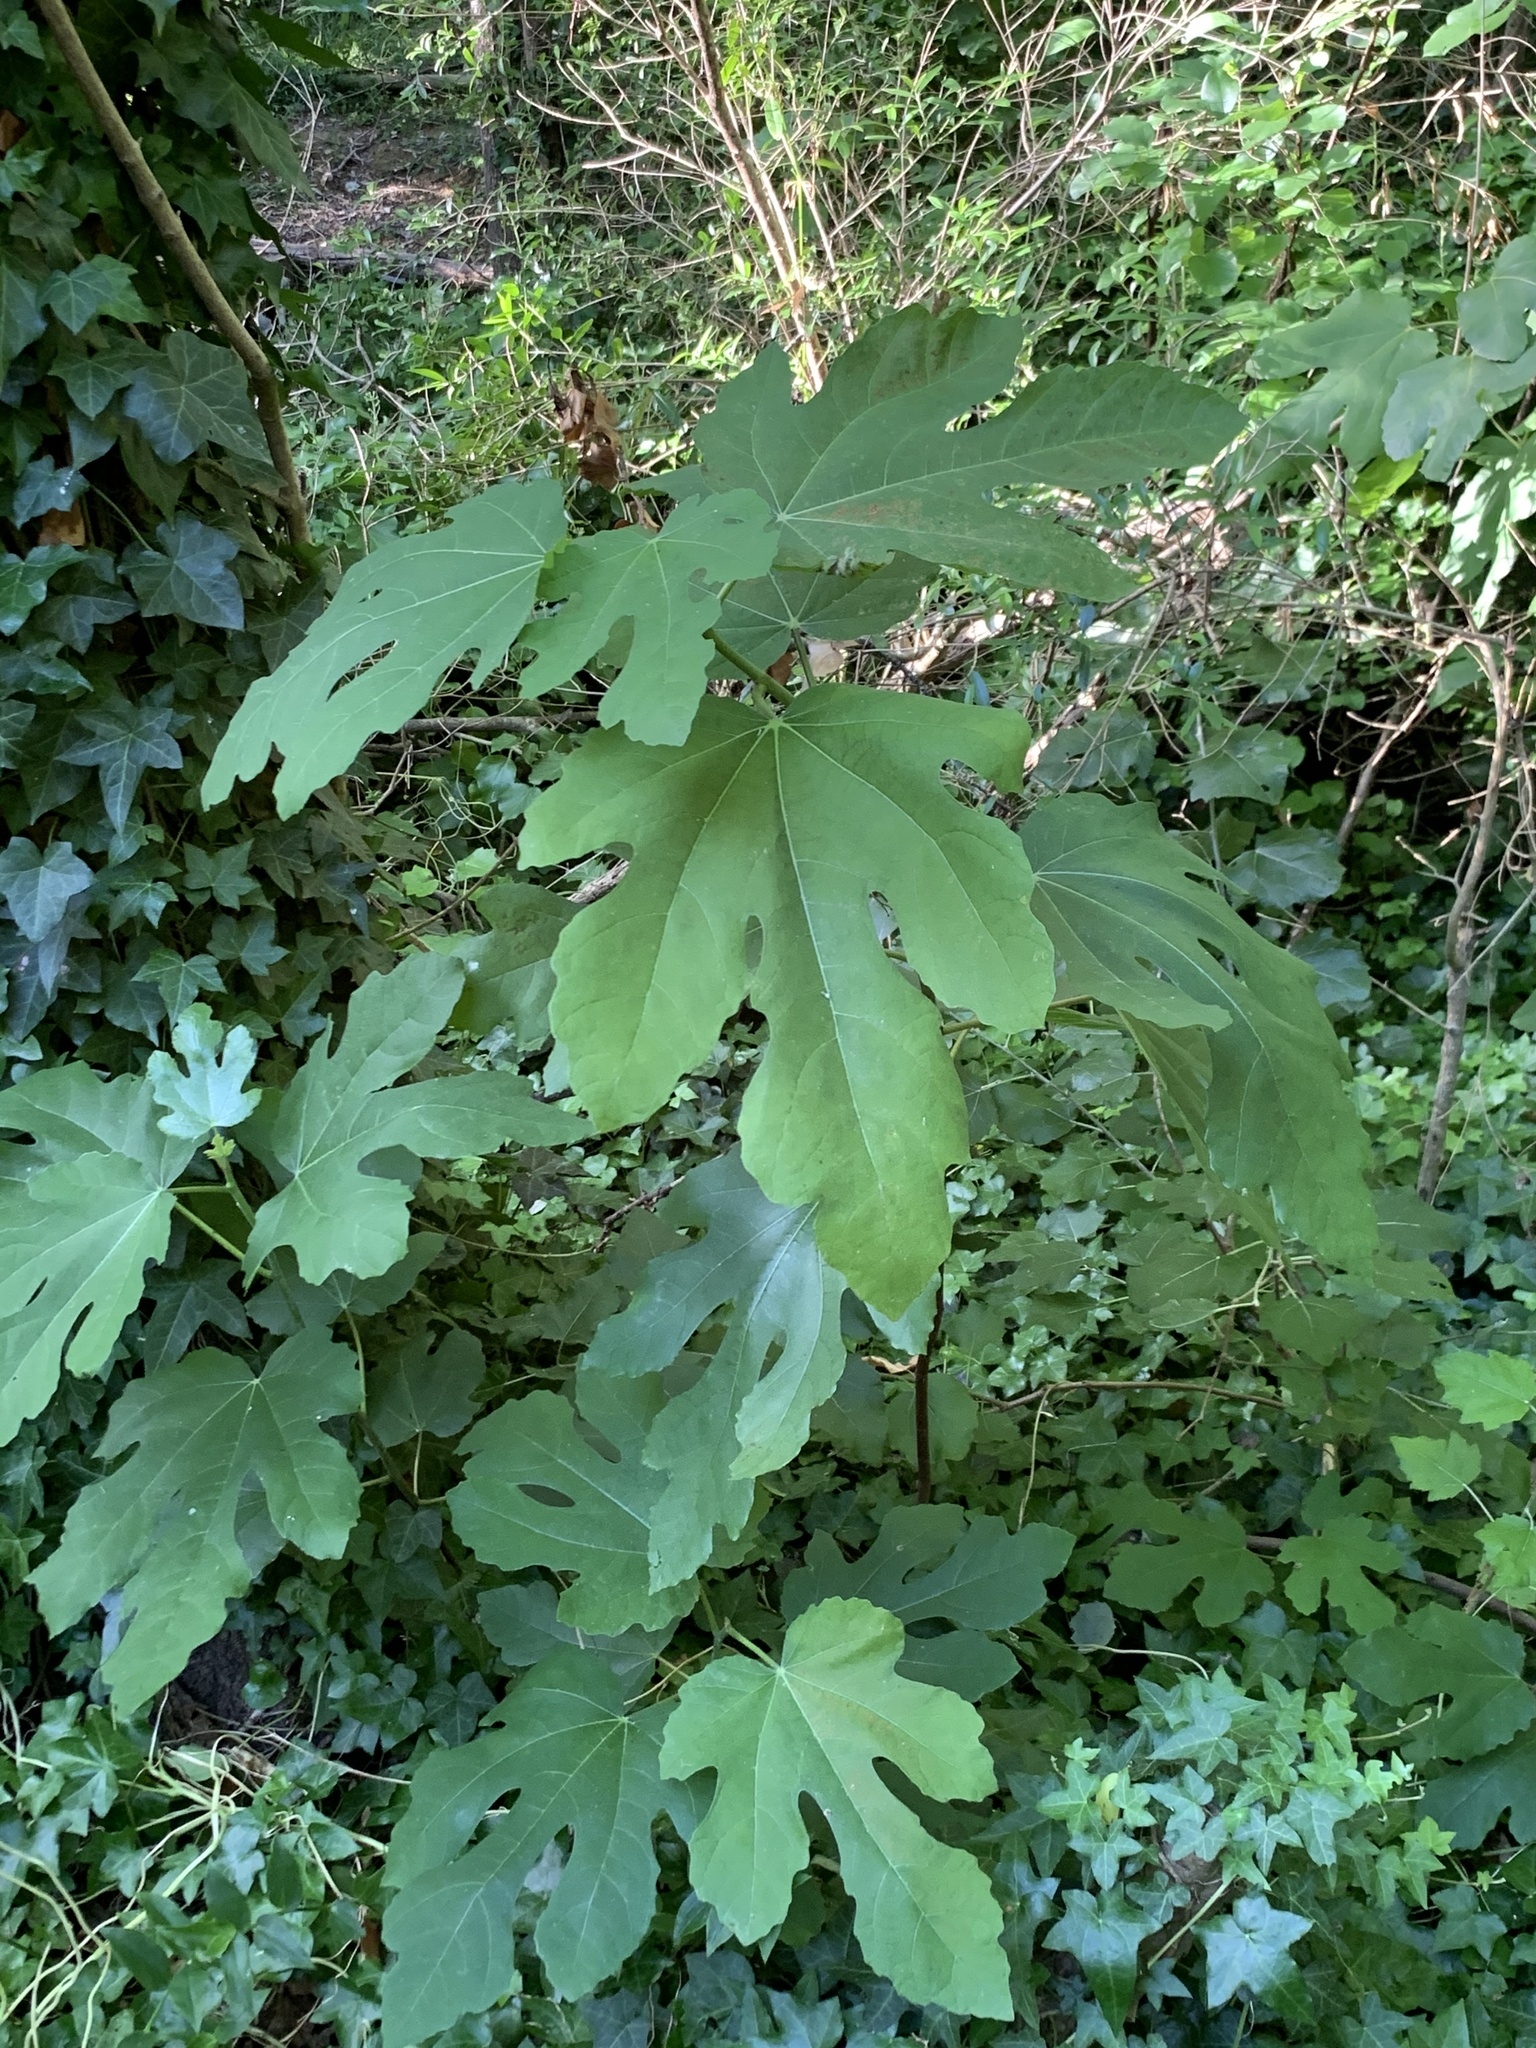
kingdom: Plantae
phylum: Tracheophyta
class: Magnoliopsida
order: Rosales
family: Moraceae
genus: Ficus
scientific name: Ficus carica
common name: Fig
